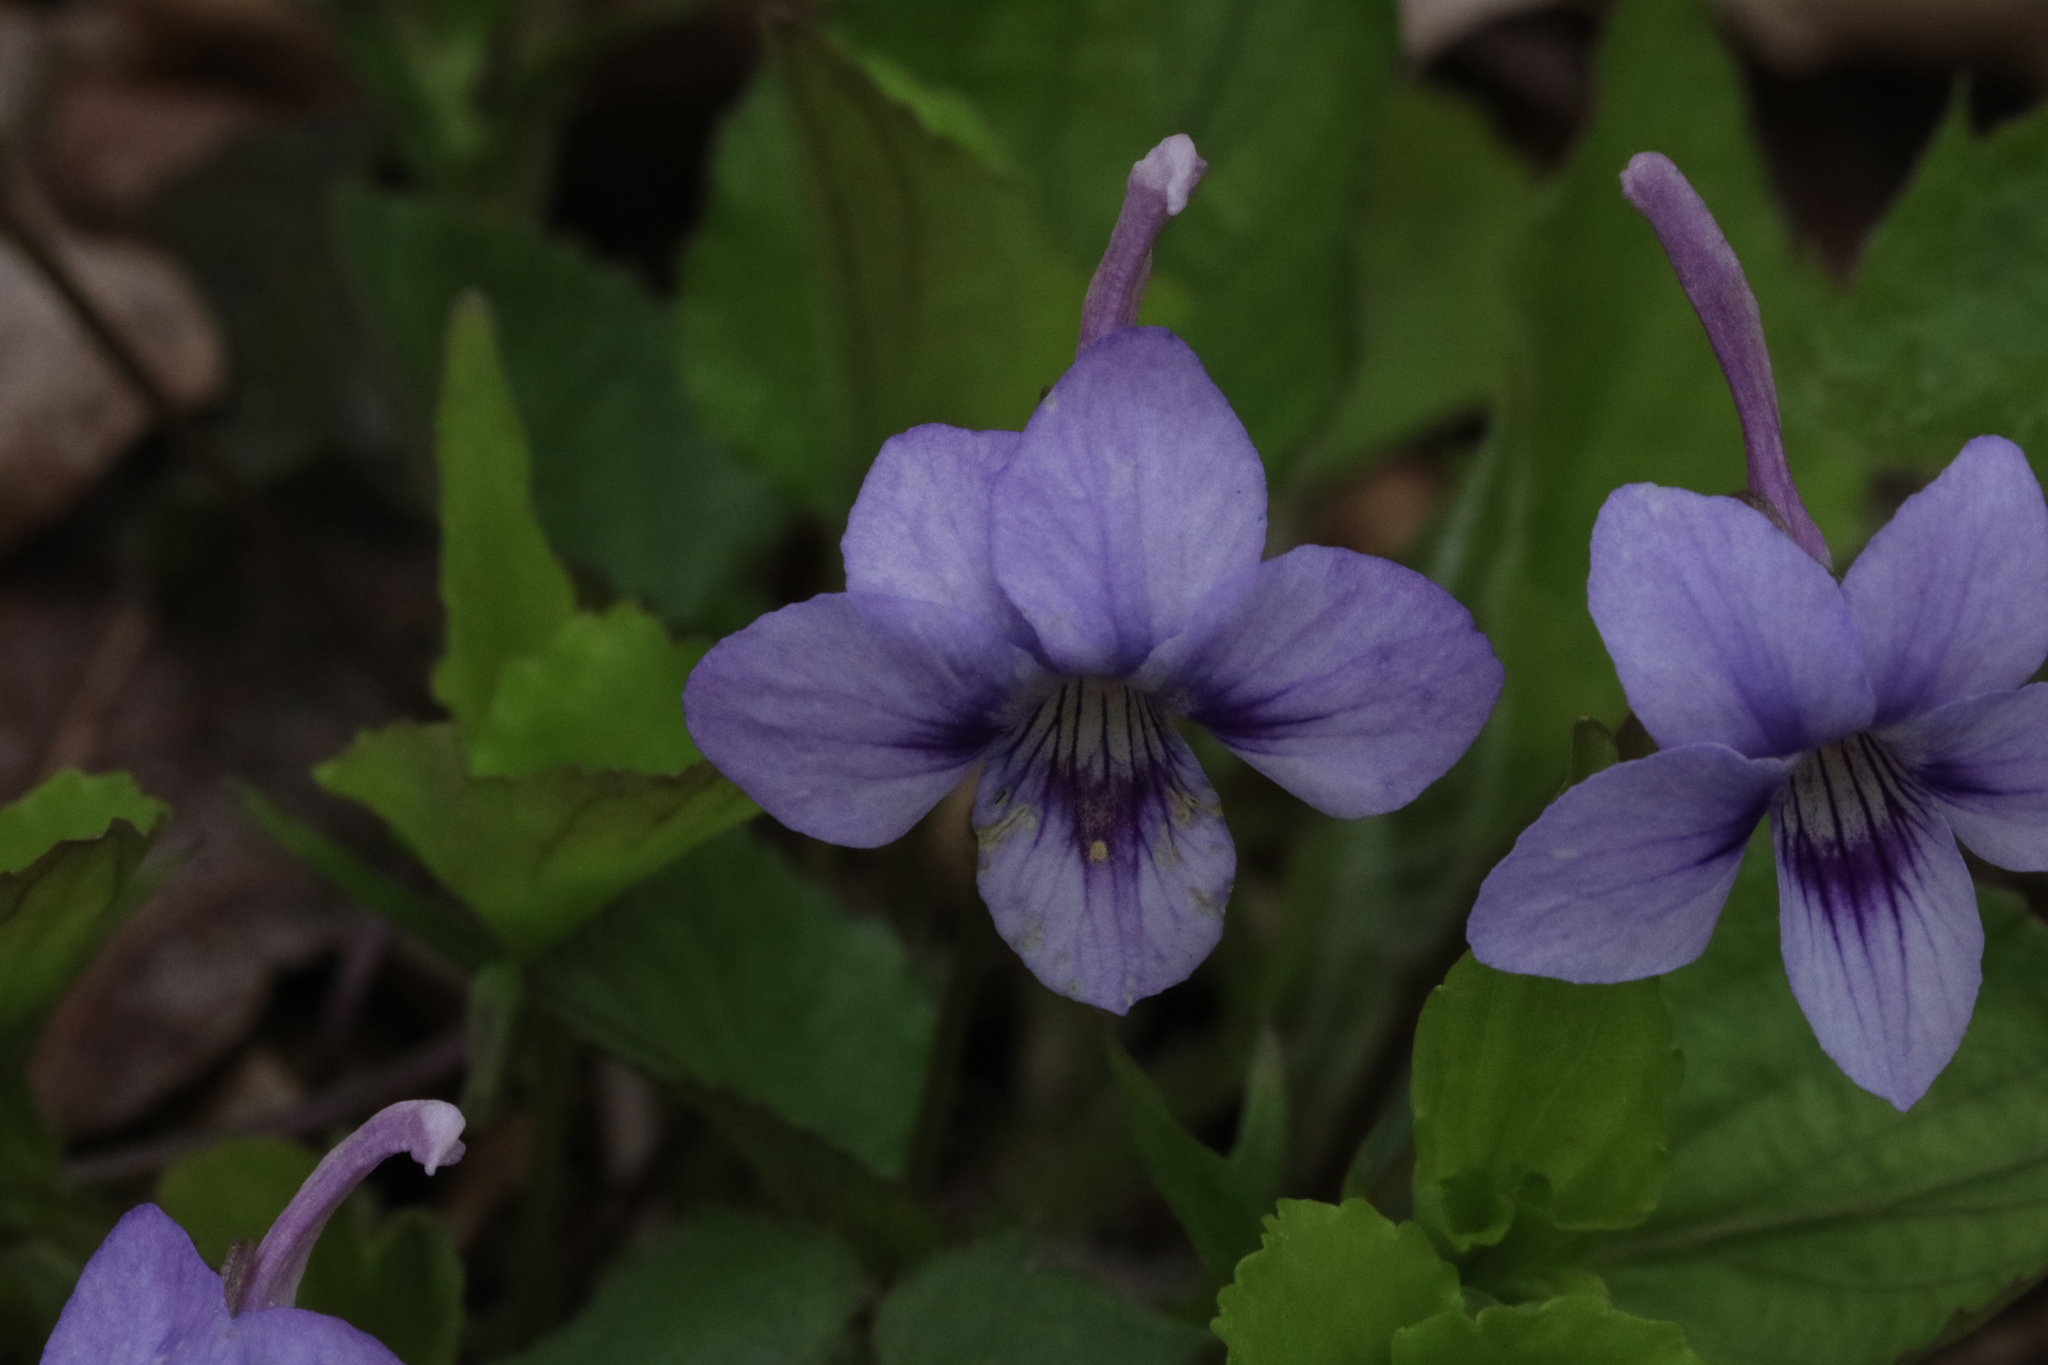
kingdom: Plantae
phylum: Tracheophyta
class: Magnoliopsida
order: Malpighiales
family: Violaceae
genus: Viola
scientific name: Viola rostrata
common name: Long-spur violet
